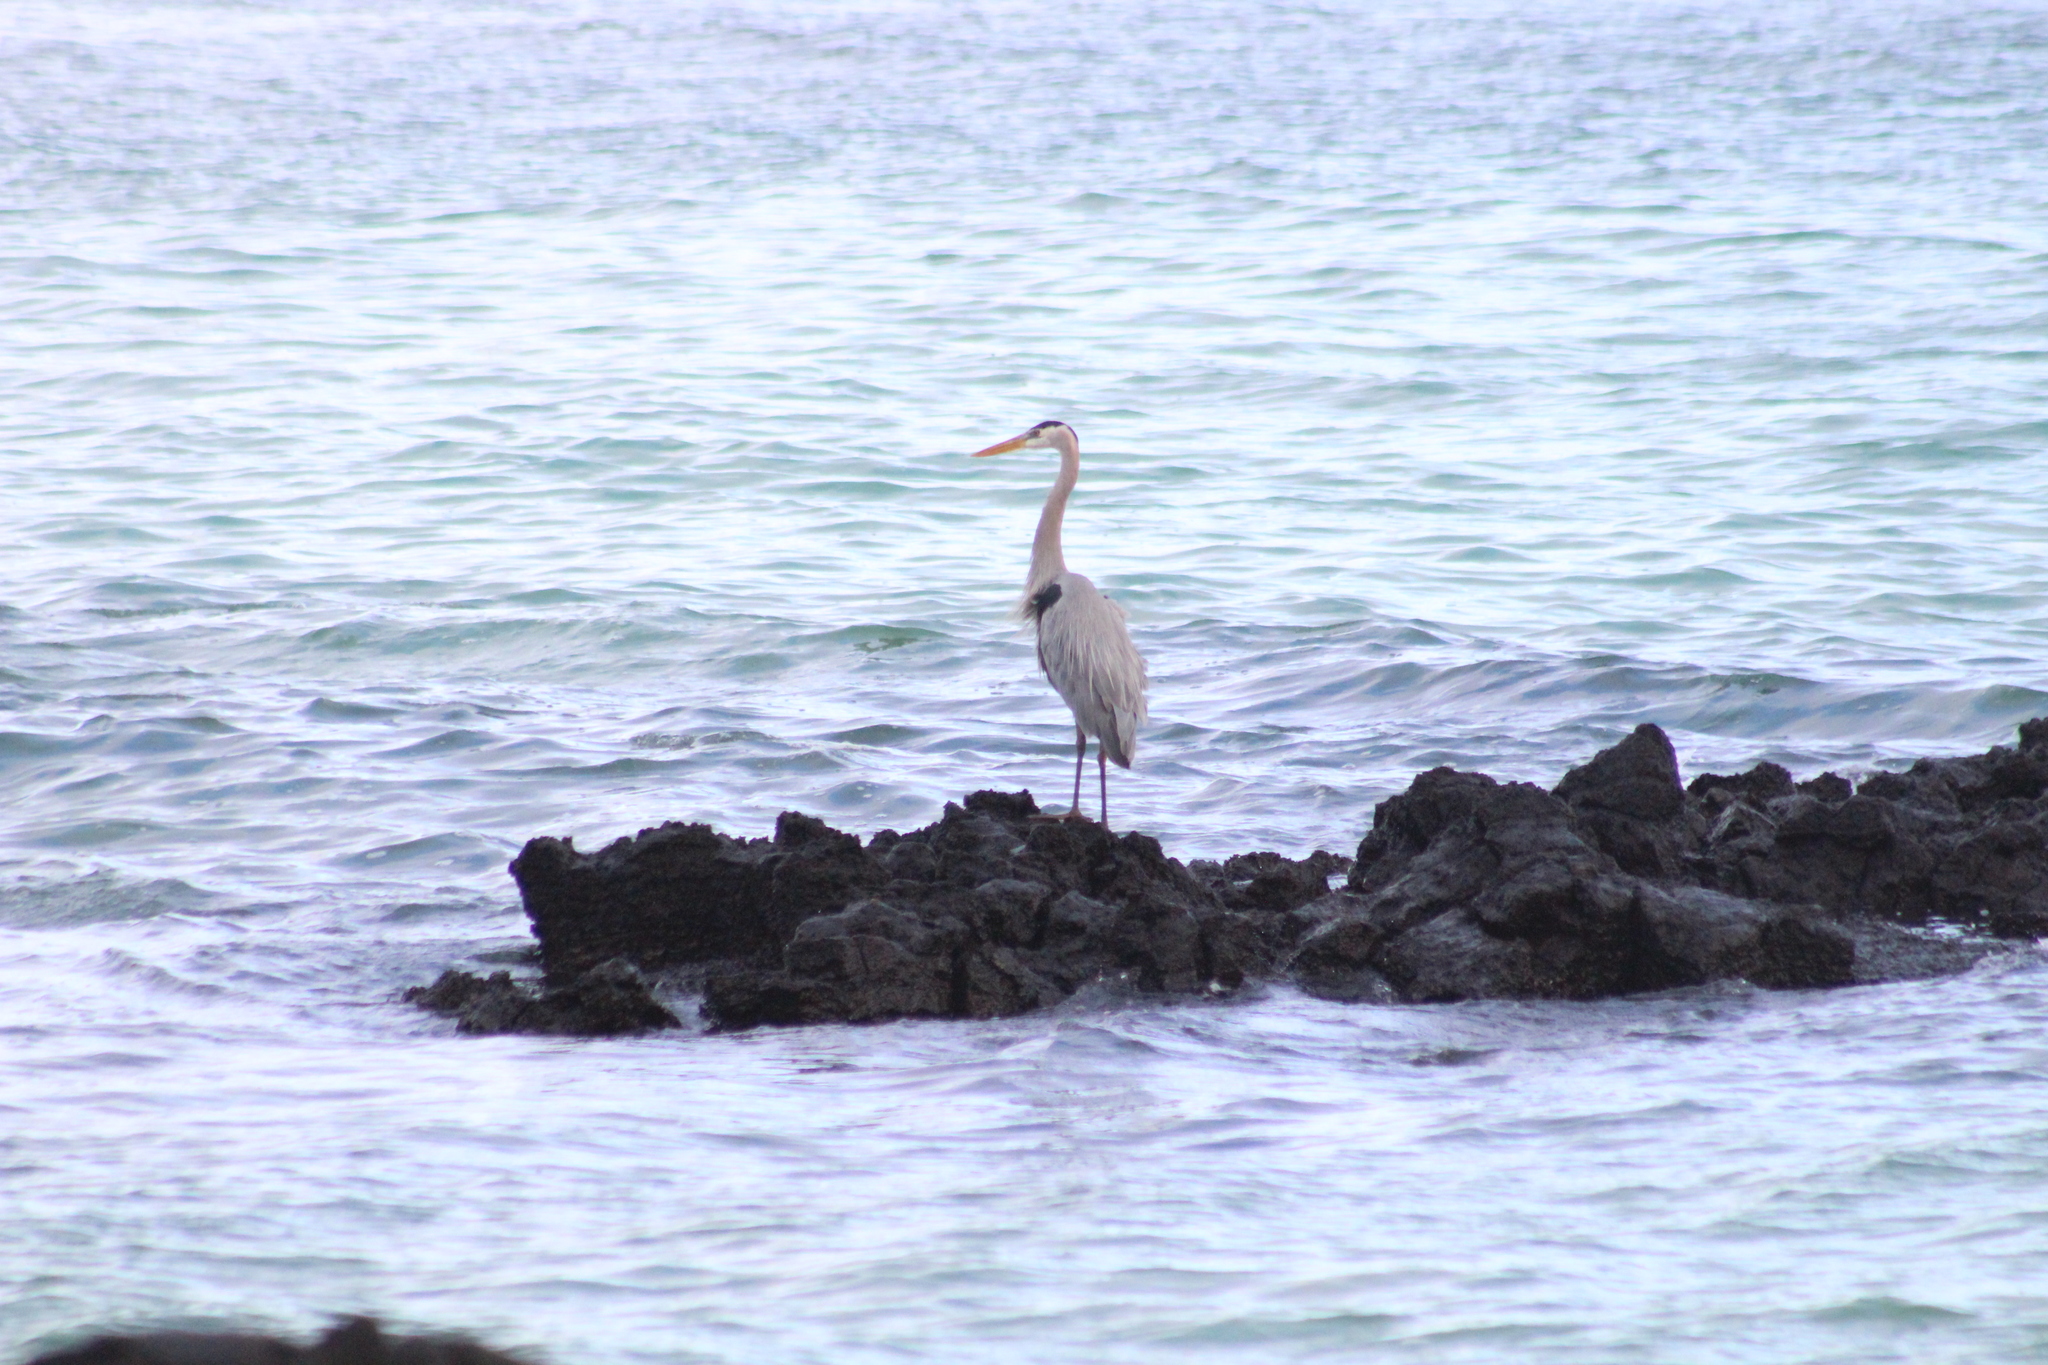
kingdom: Animalia
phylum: Chordata
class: Aves
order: Pelecaniformes
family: Ardeidae
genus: Ardea
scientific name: Ardea herodias
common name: Great blue heron
